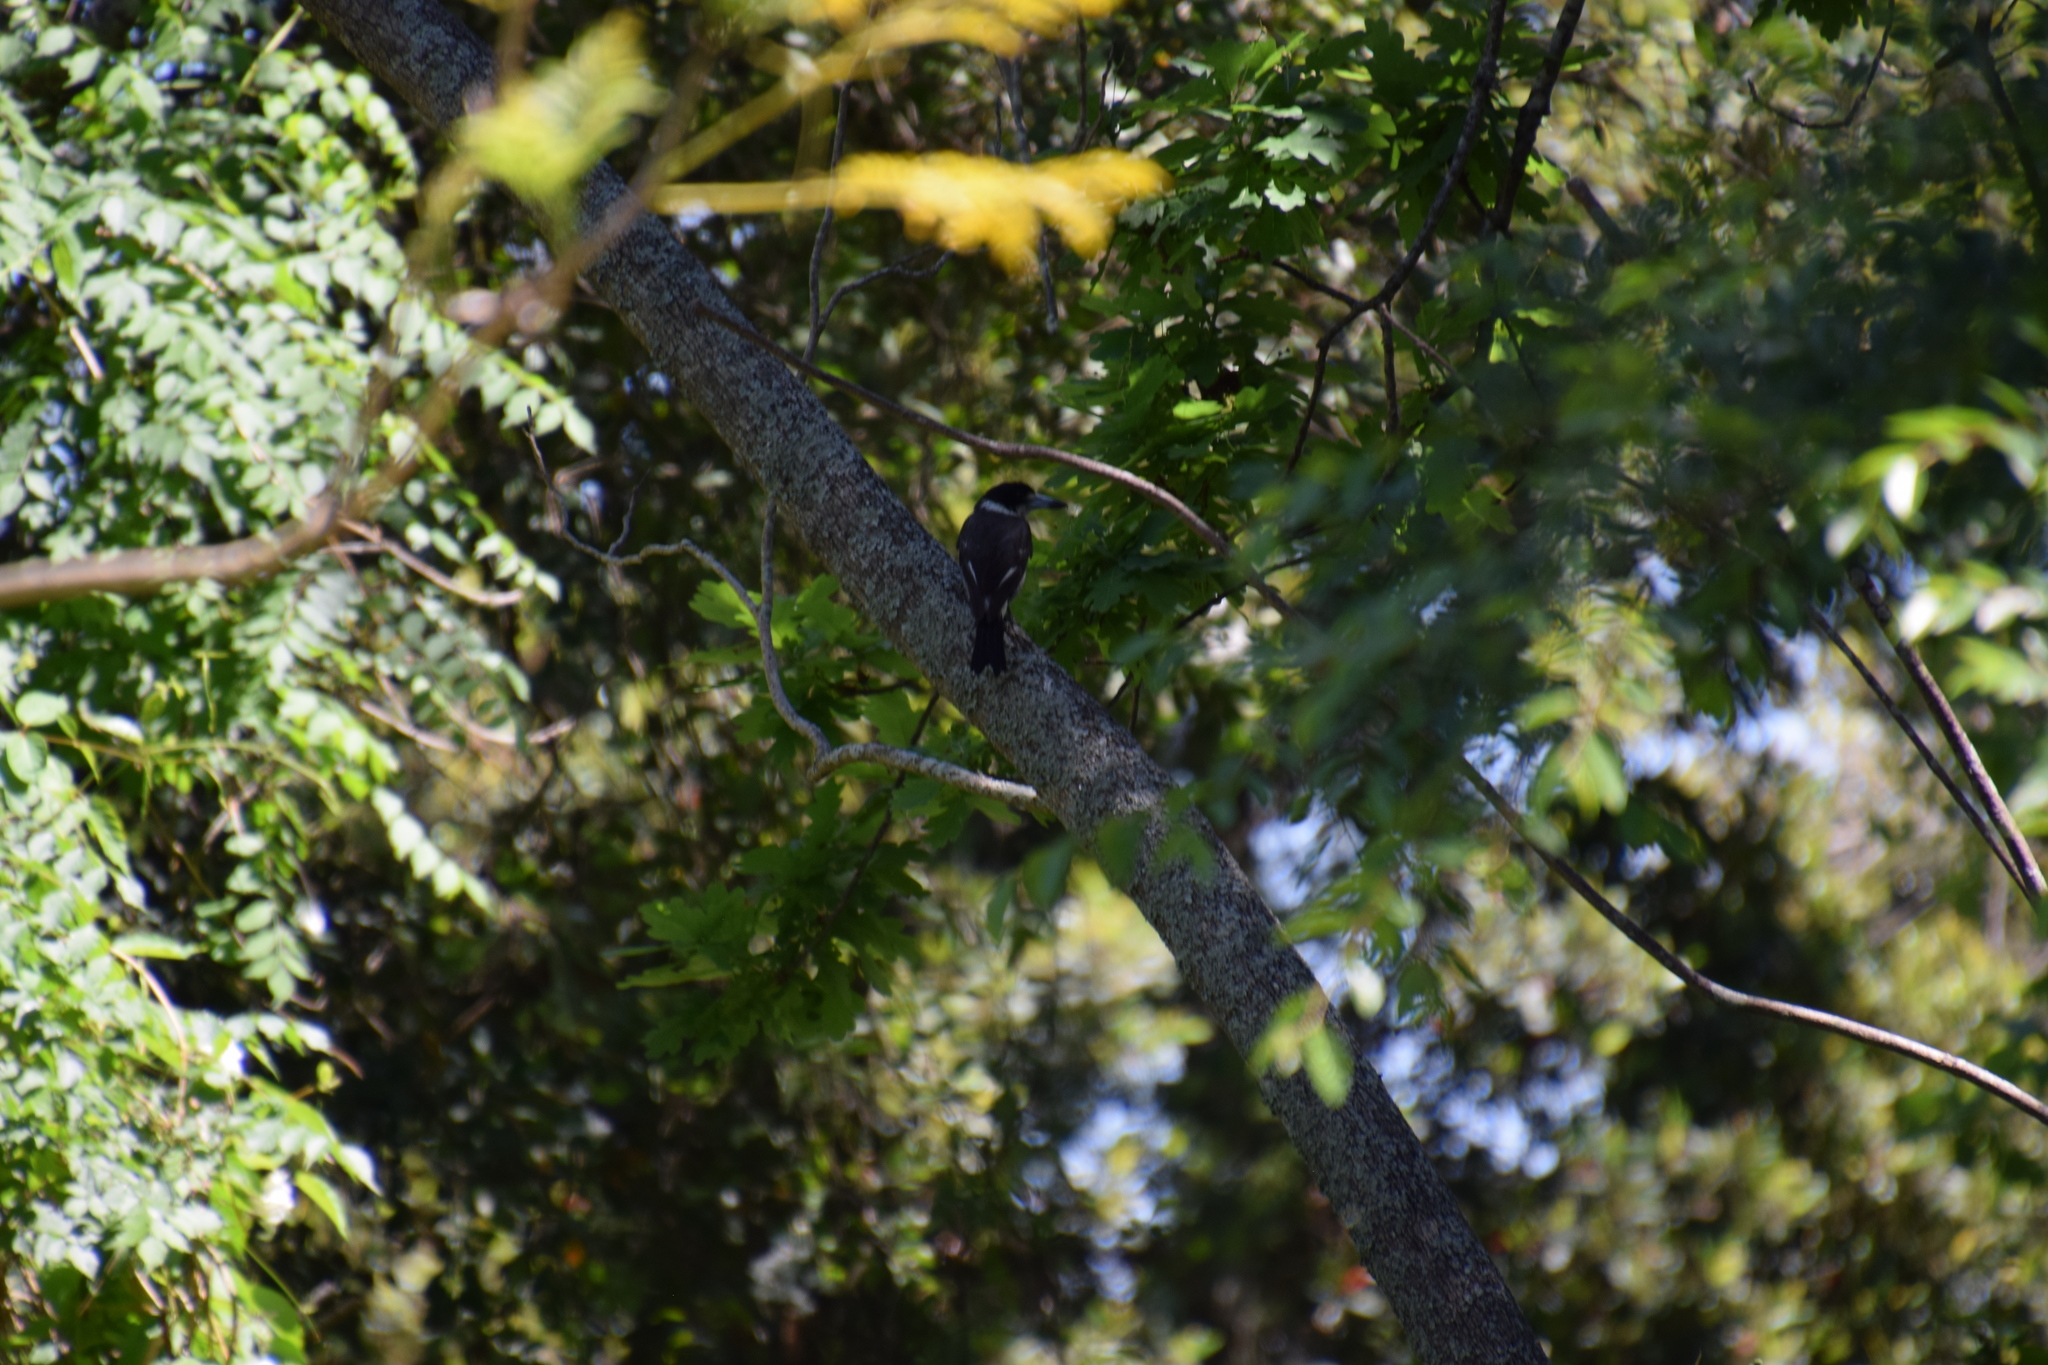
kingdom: Animalia
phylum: Chordata
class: Aves
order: Passeriformes
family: Cracticidae
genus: Cracticus
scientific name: Cracticus torquatus
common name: Grey butcherbird
